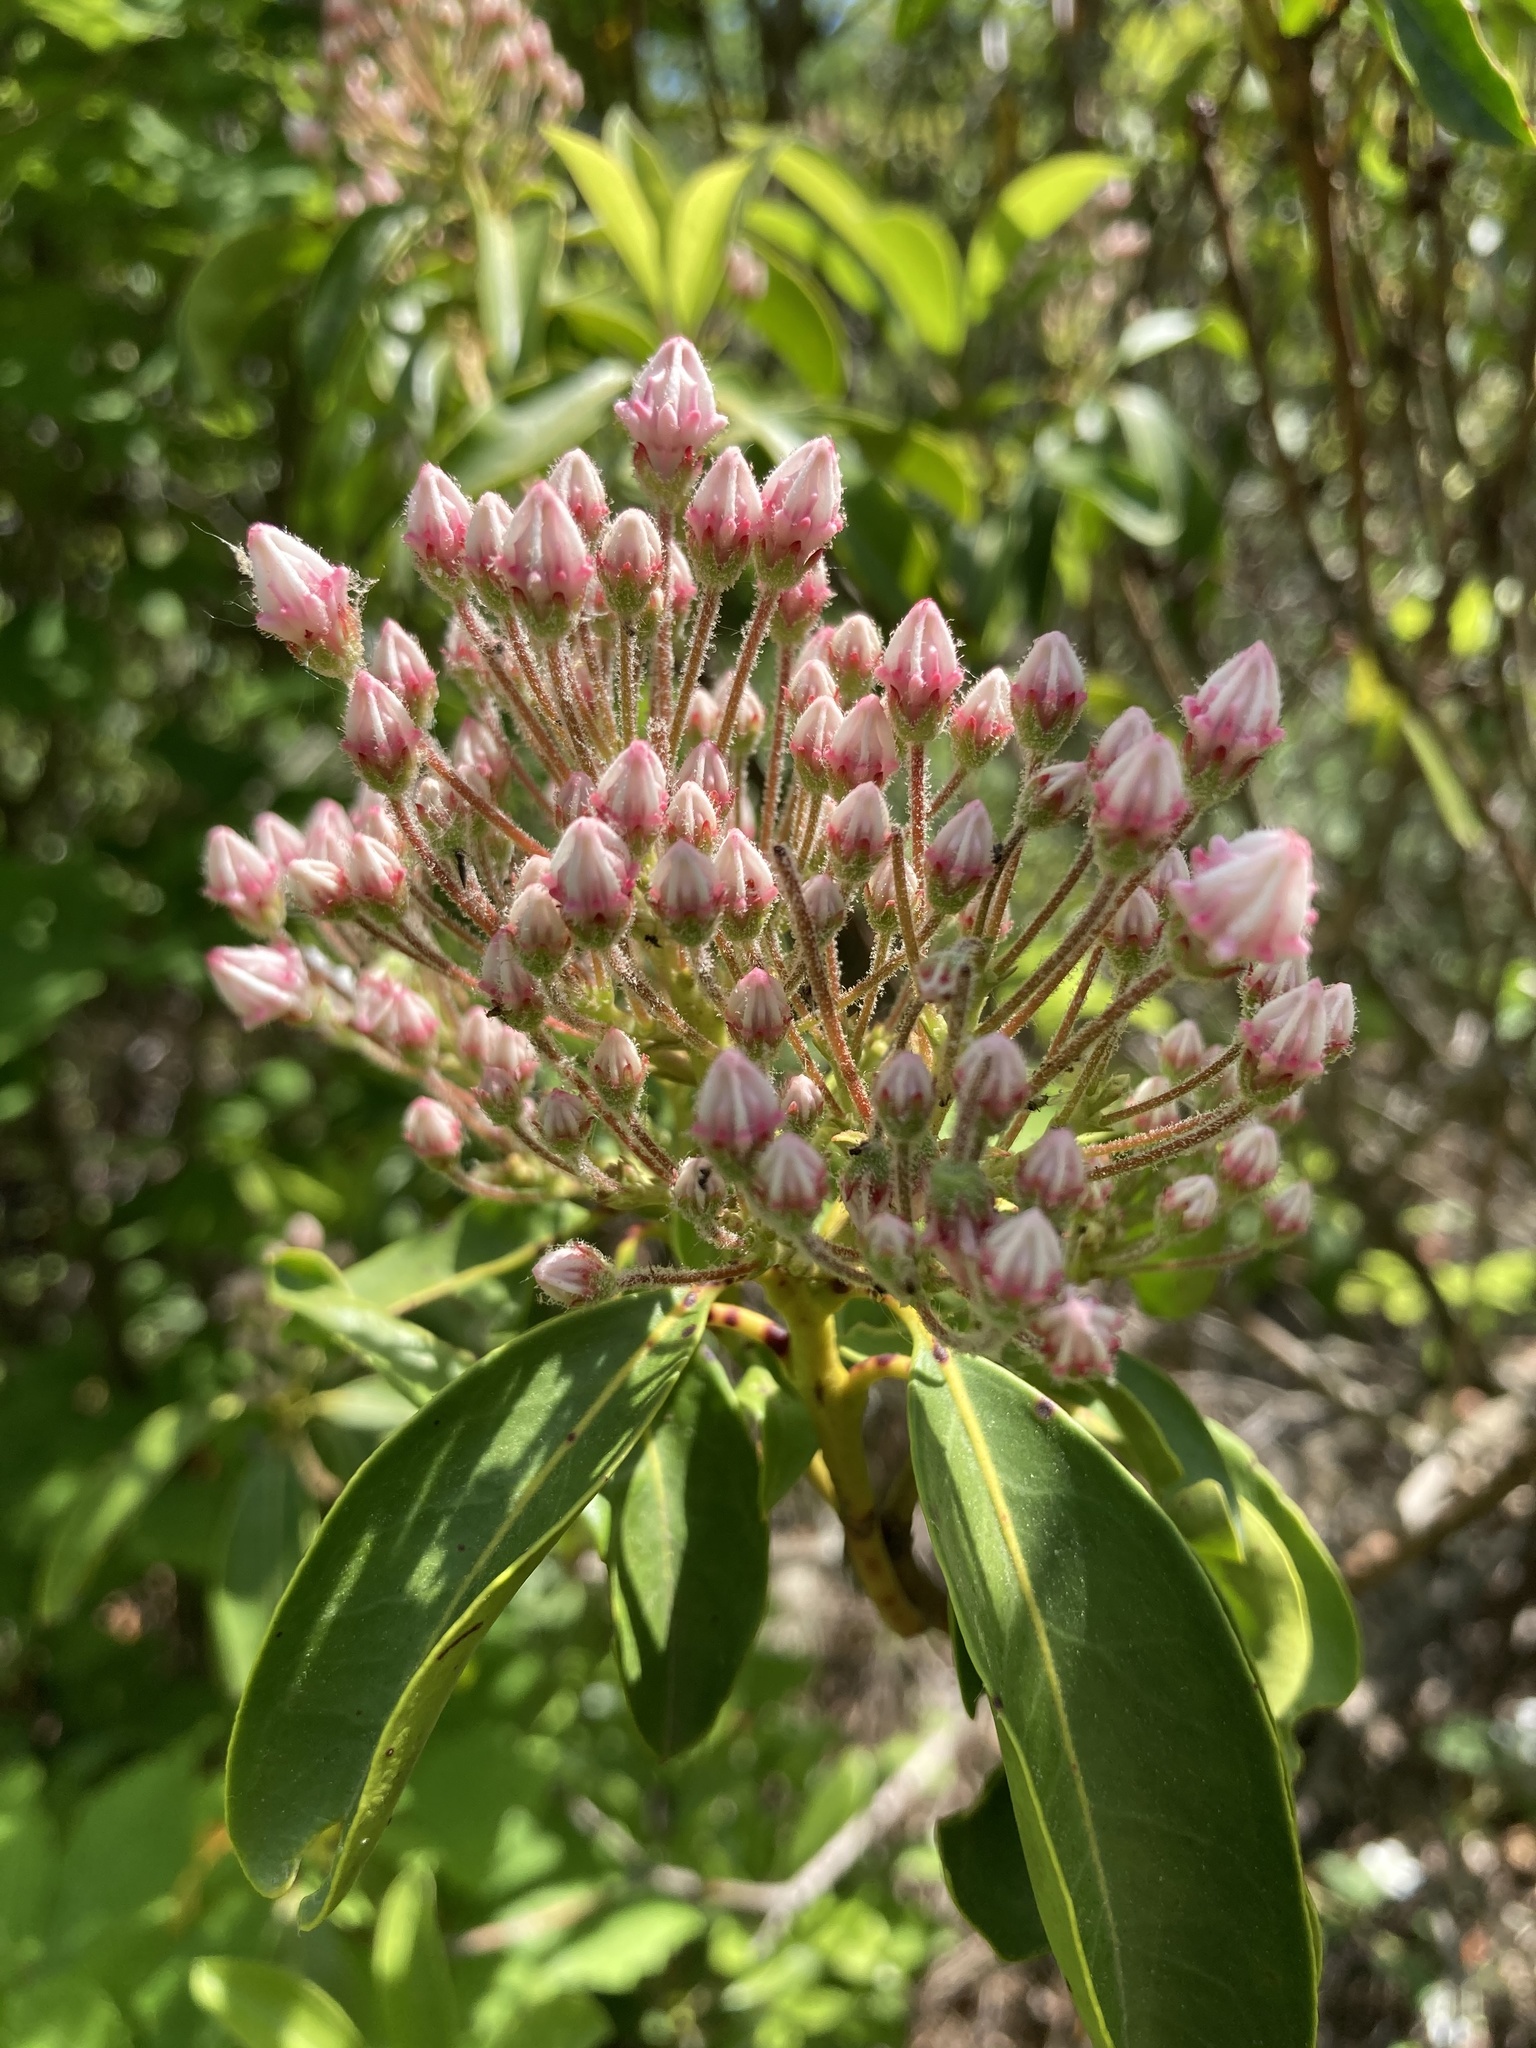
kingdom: Plantae
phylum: Tracheophyta
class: Magnoliopsida
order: Ericales
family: Ericaceae
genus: Kalmia
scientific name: Kalmia latifolia
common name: Mountain-laurel
